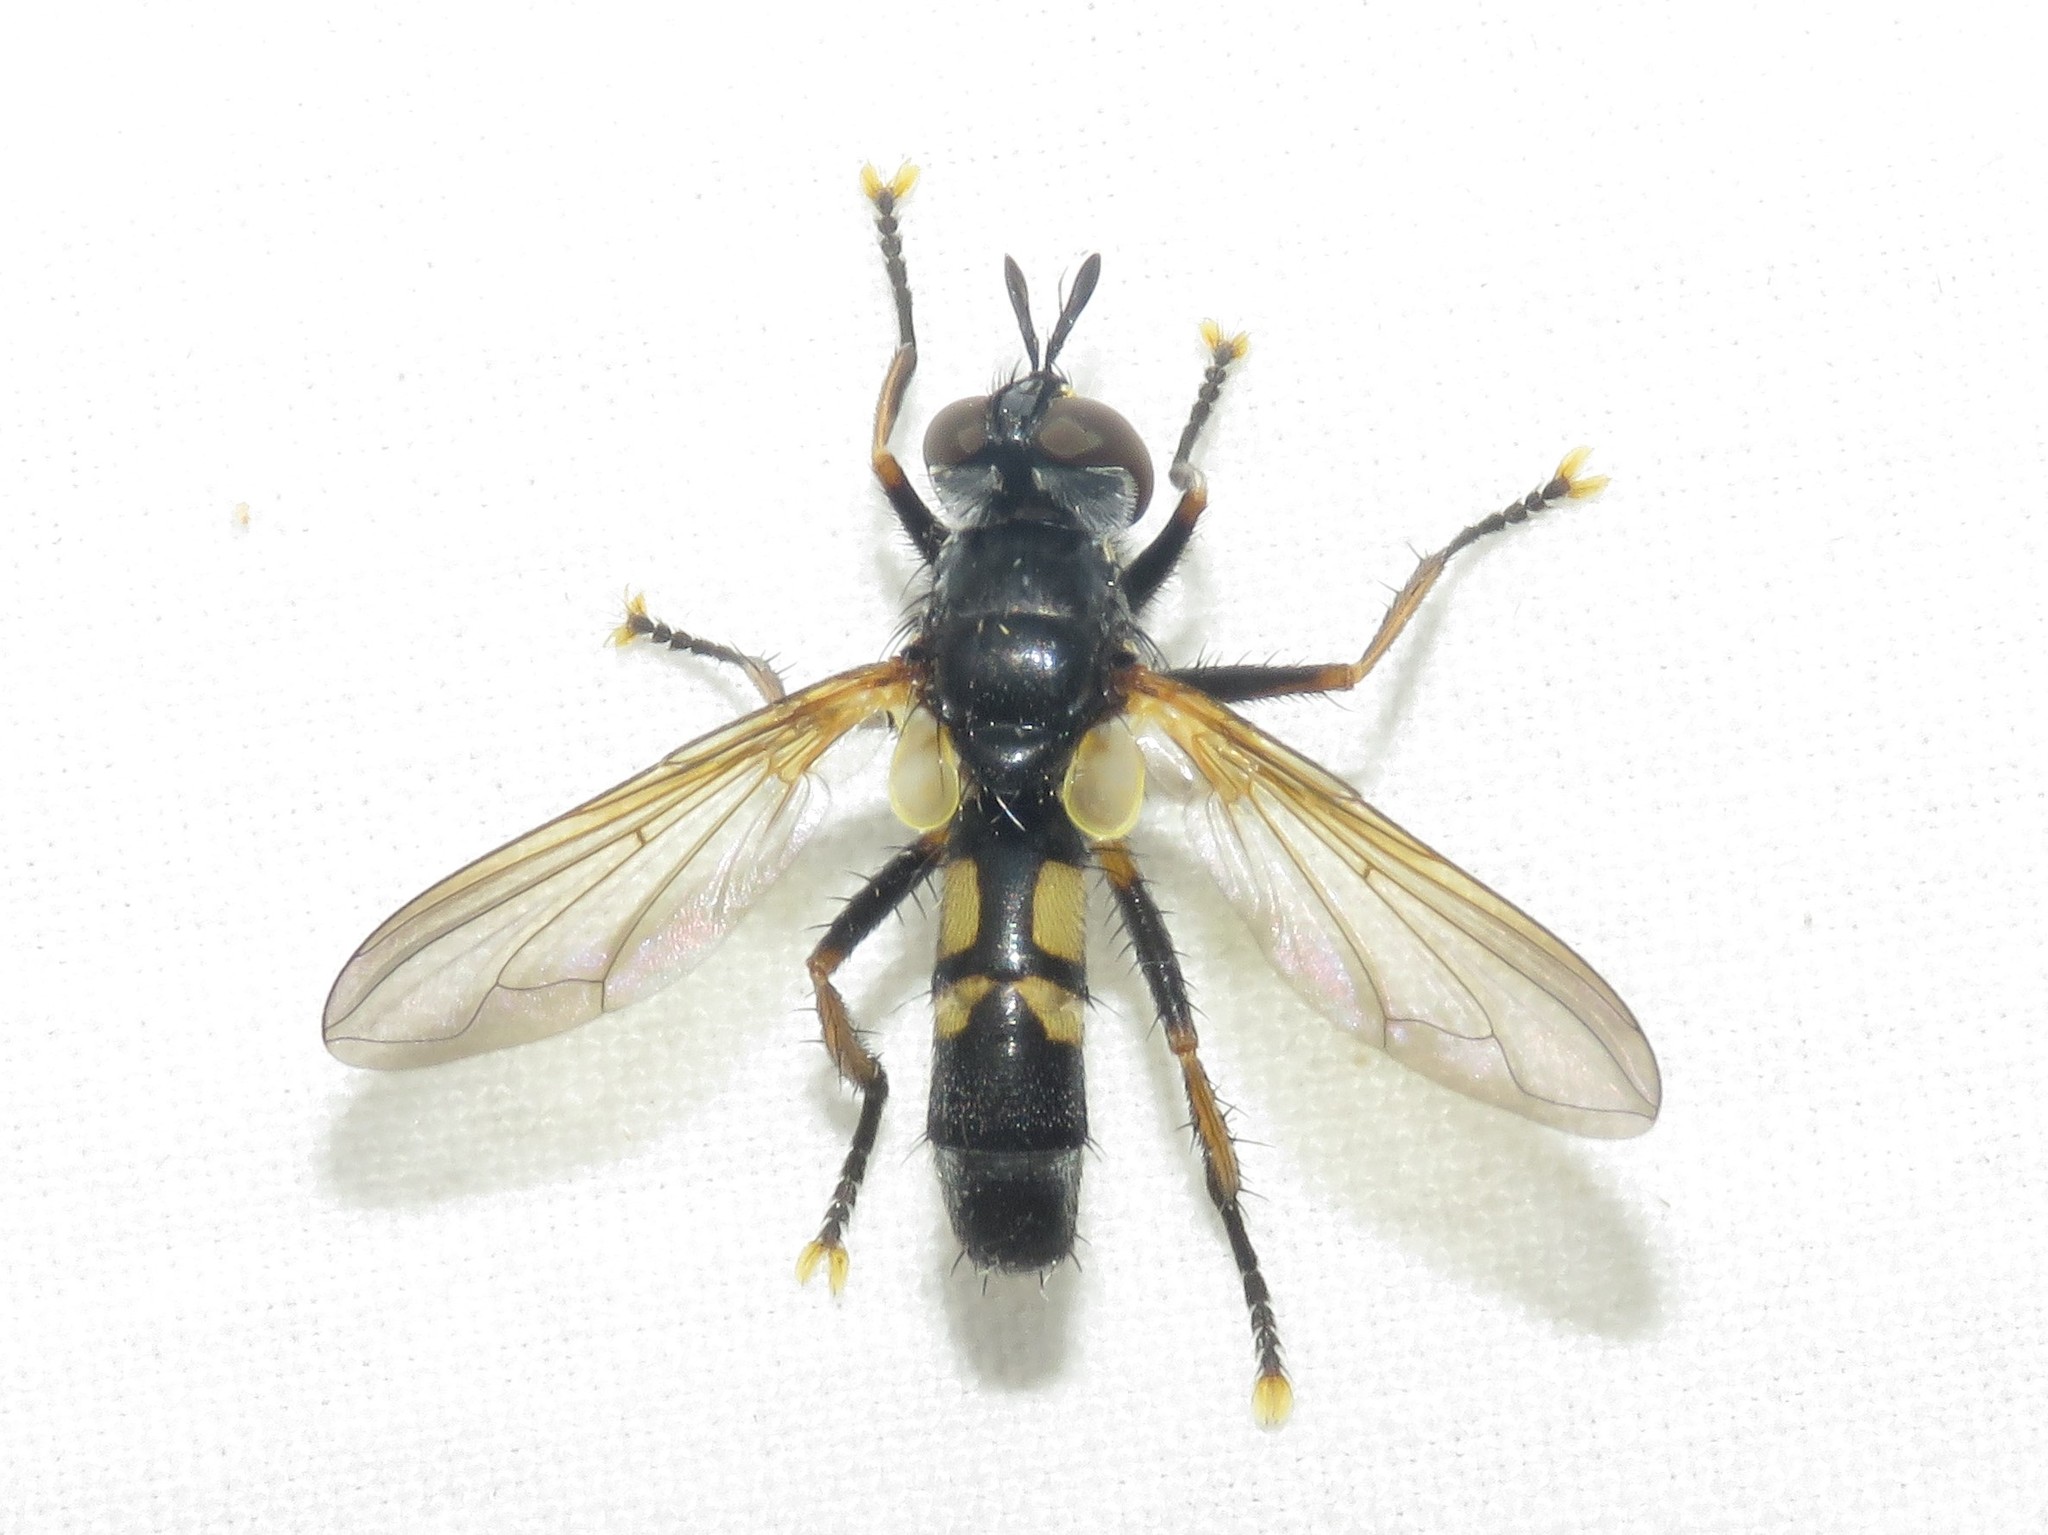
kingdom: Animalia
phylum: Arthropoda
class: Insecta
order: Diptera
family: Tachinidae
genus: Hemyda
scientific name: Hemyda aurata
